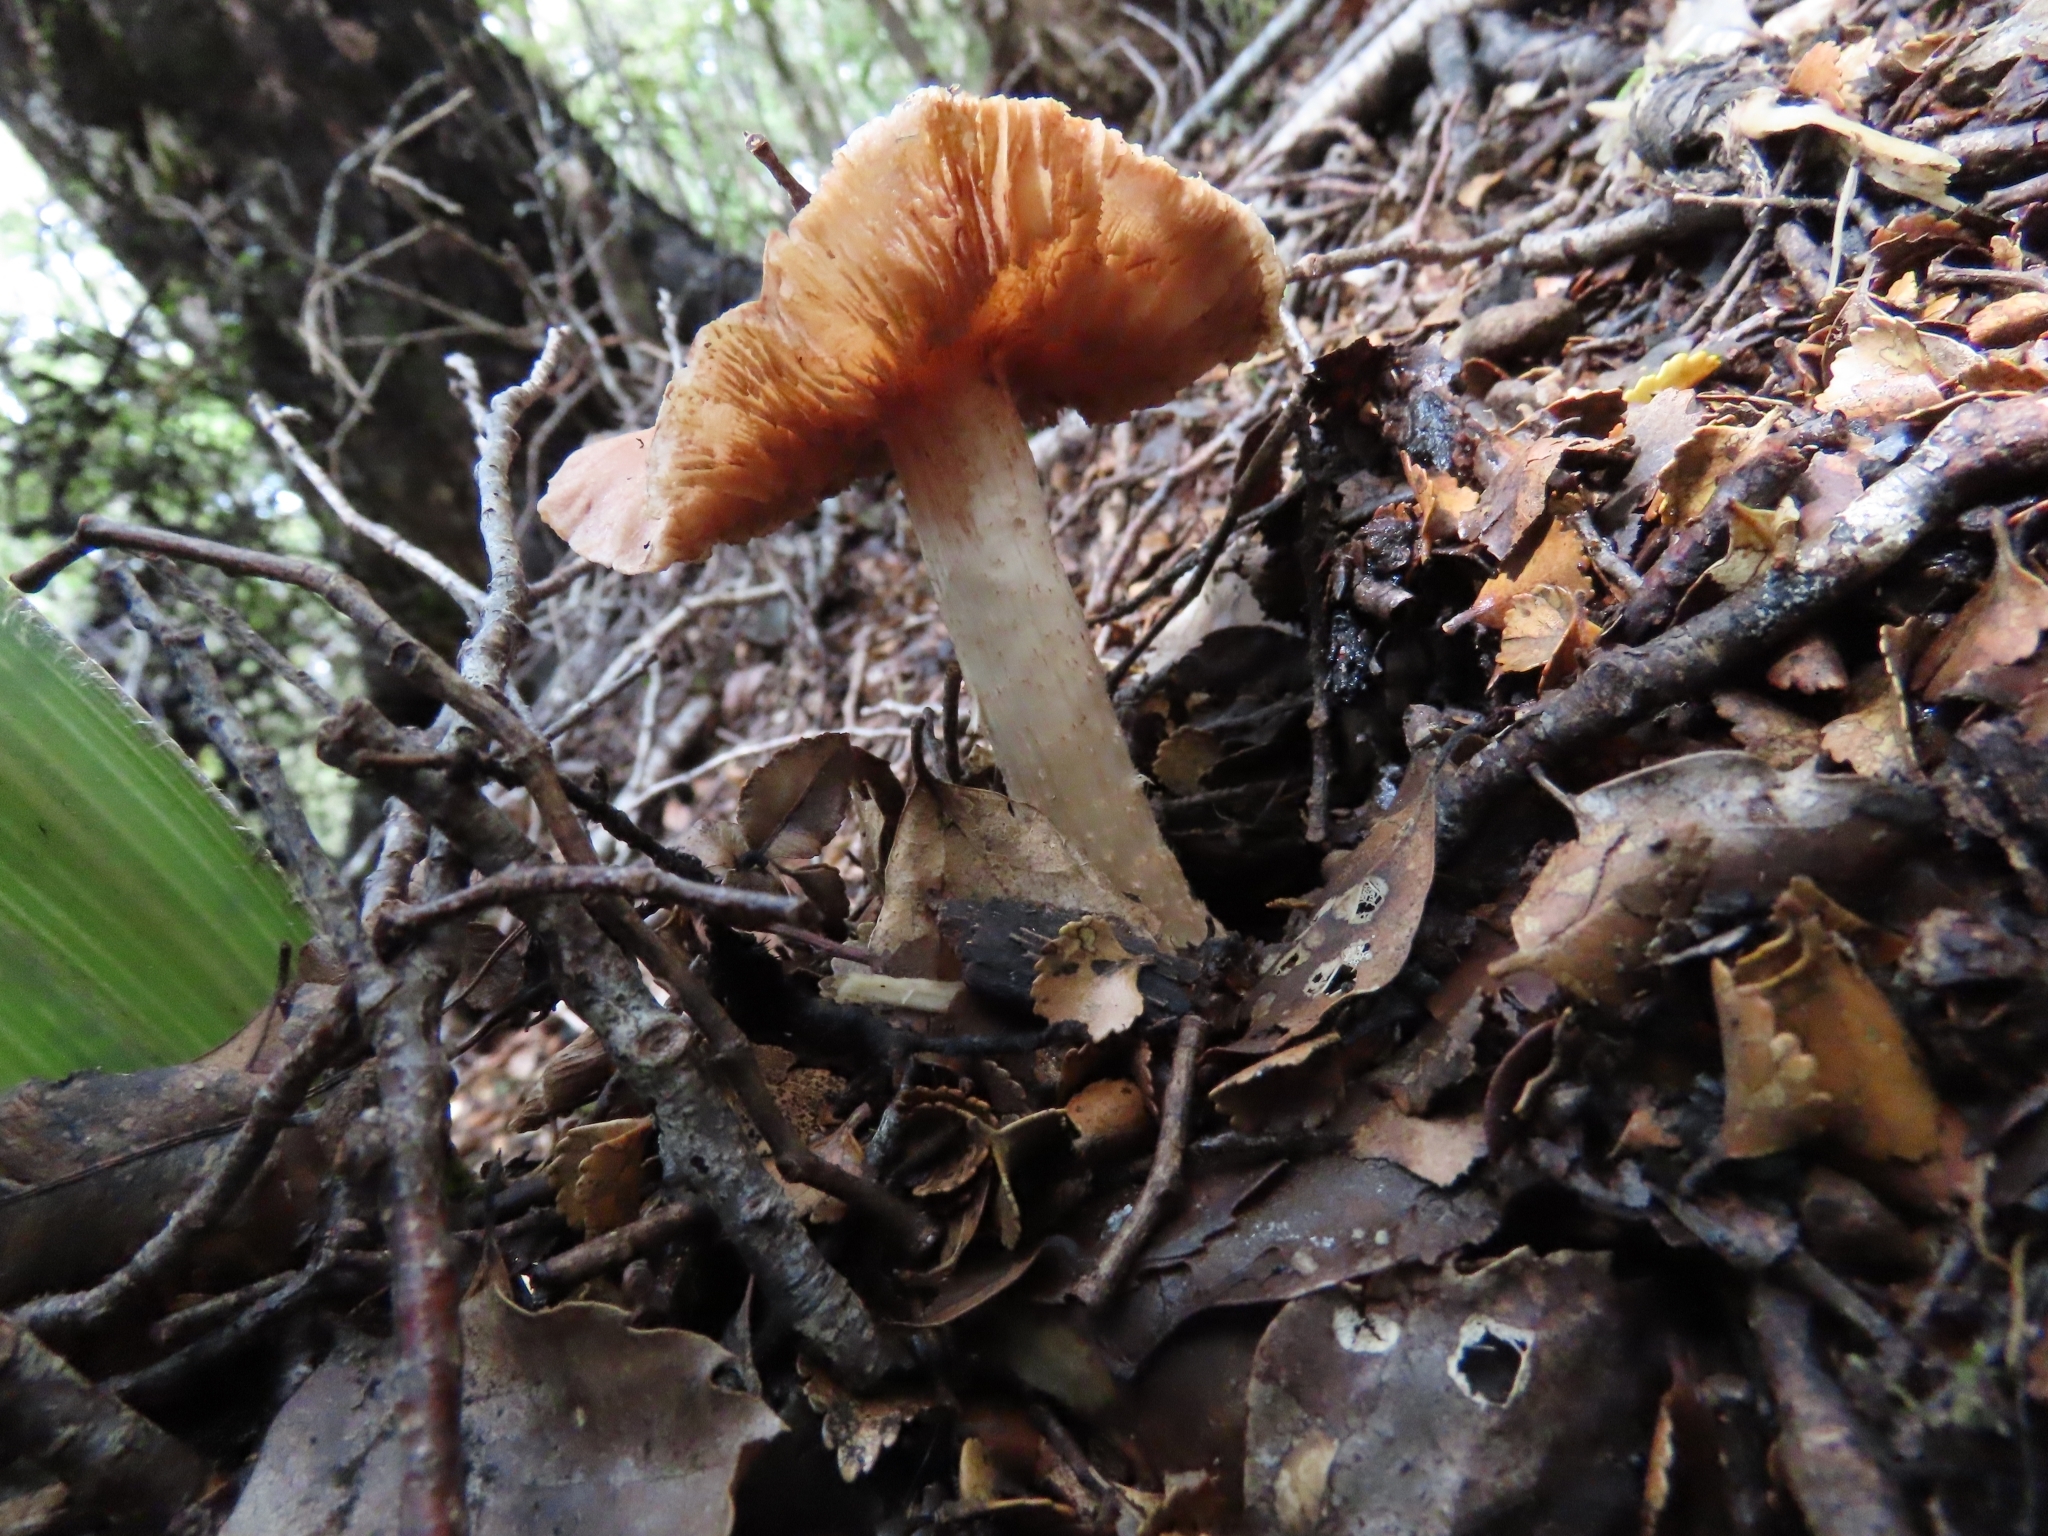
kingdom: Fungi
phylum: Basidiomycota
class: Agaricomycetes
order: Agaricales
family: Cortinariaceae
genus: Cortinarius
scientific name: Cortinarius alboroseus
